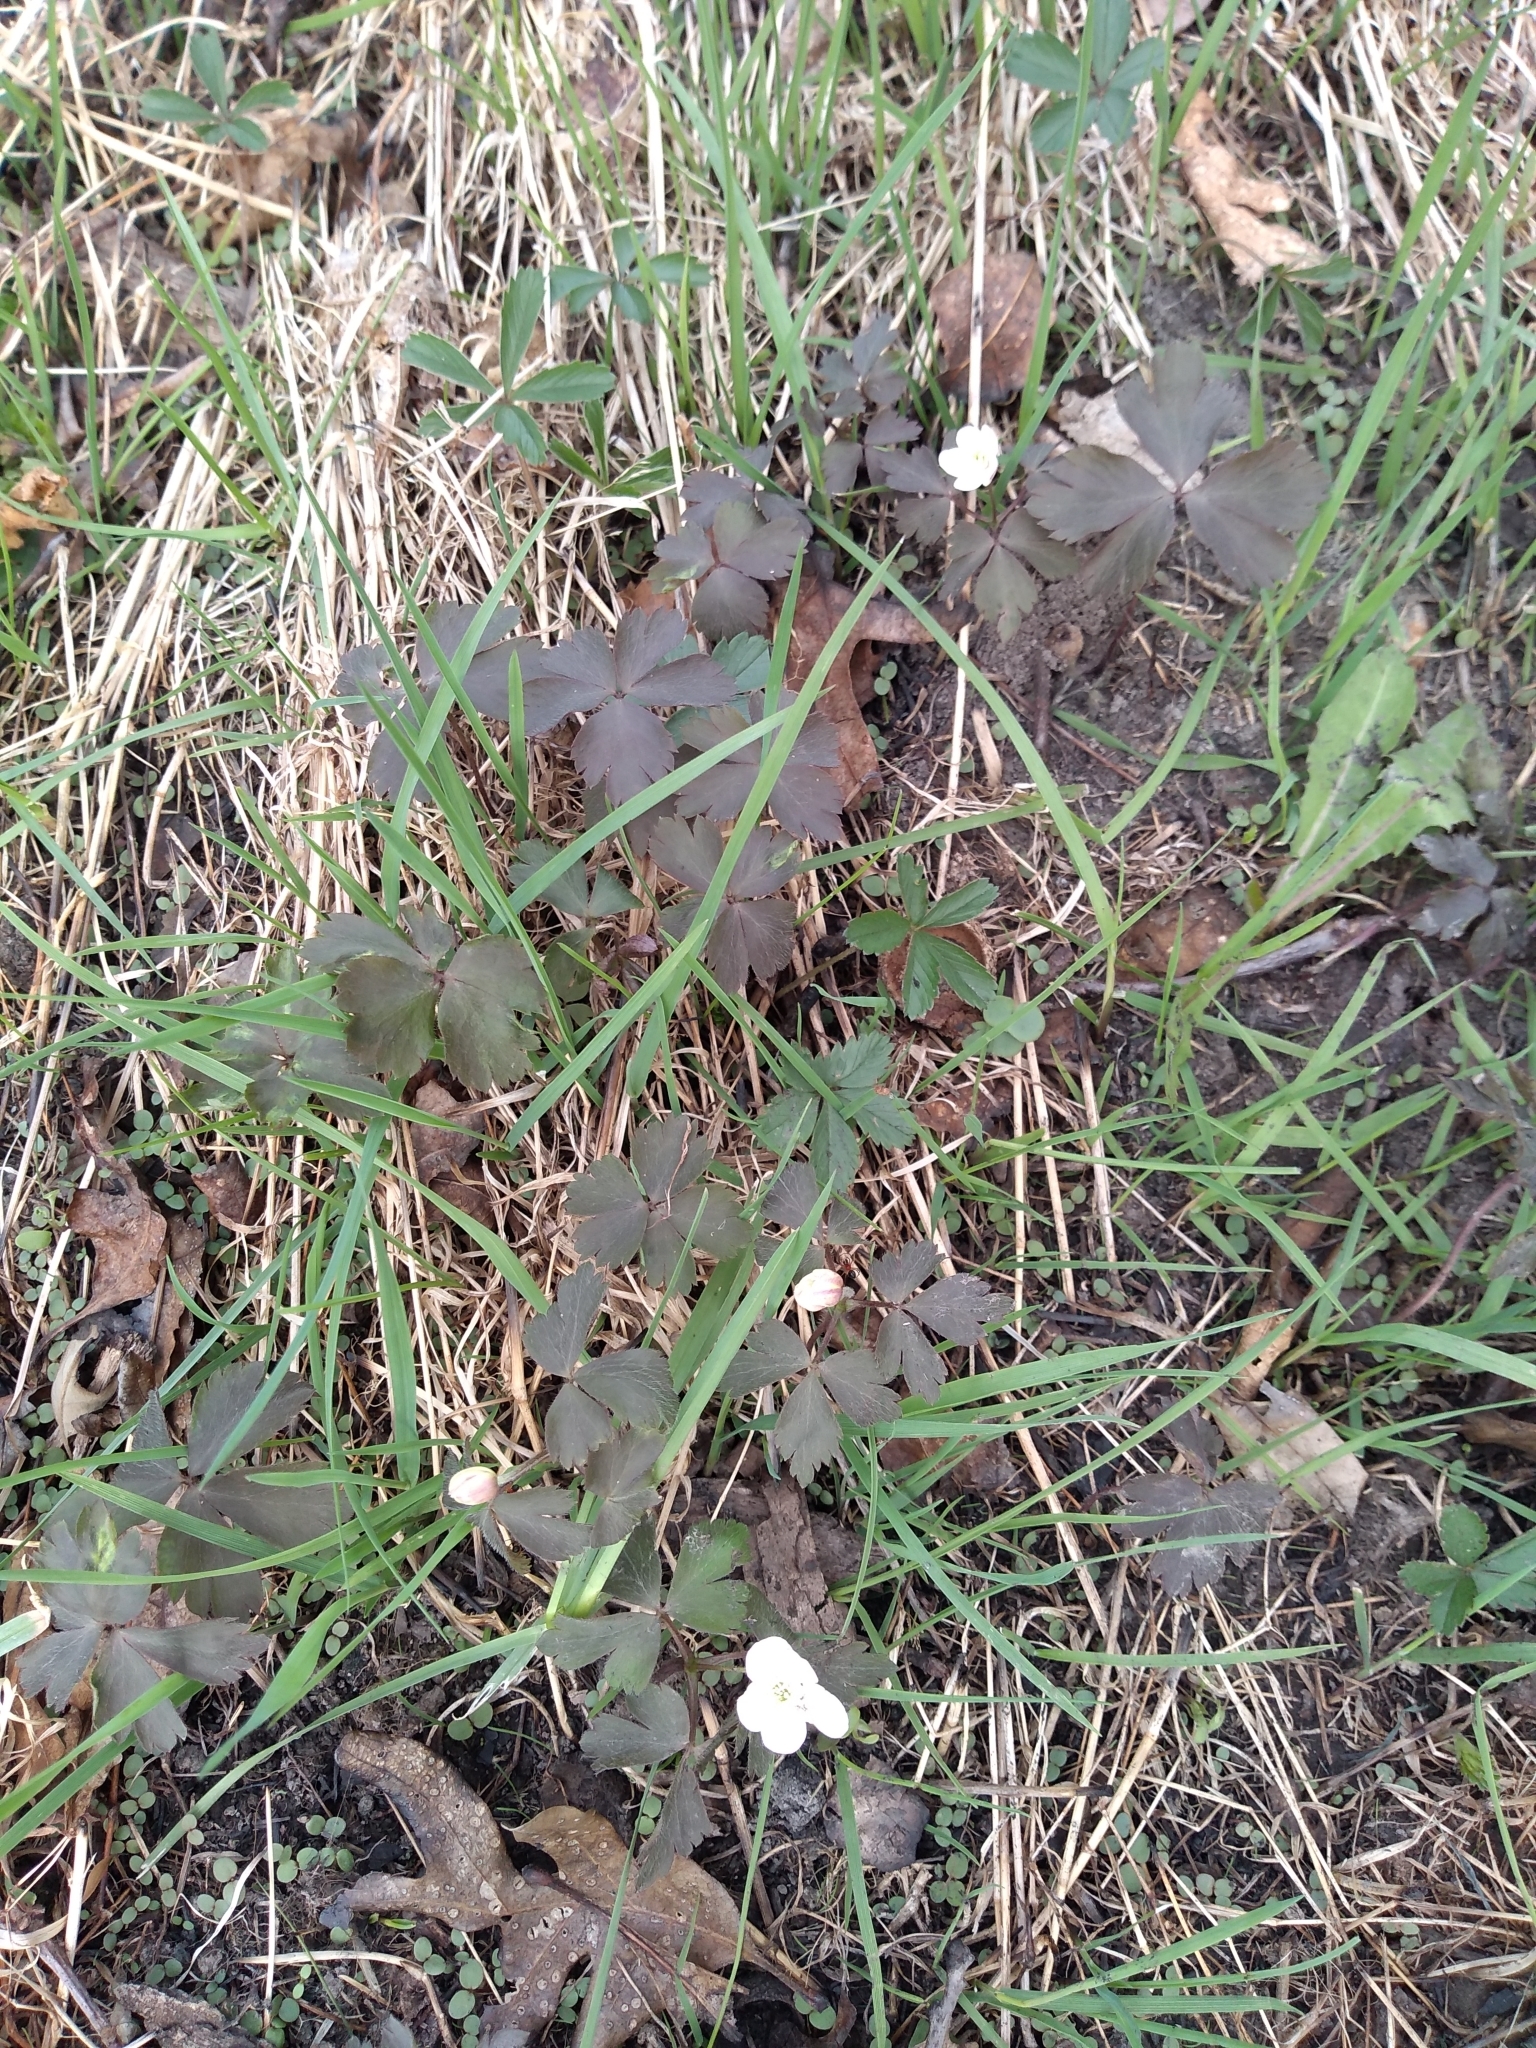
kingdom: Plantae
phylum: Tracheophyta
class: Magnoliopsida
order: Ranunculales
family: Ranunculaceae
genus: Anemone
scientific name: Anemone quinquefolia
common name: Wood anemone
